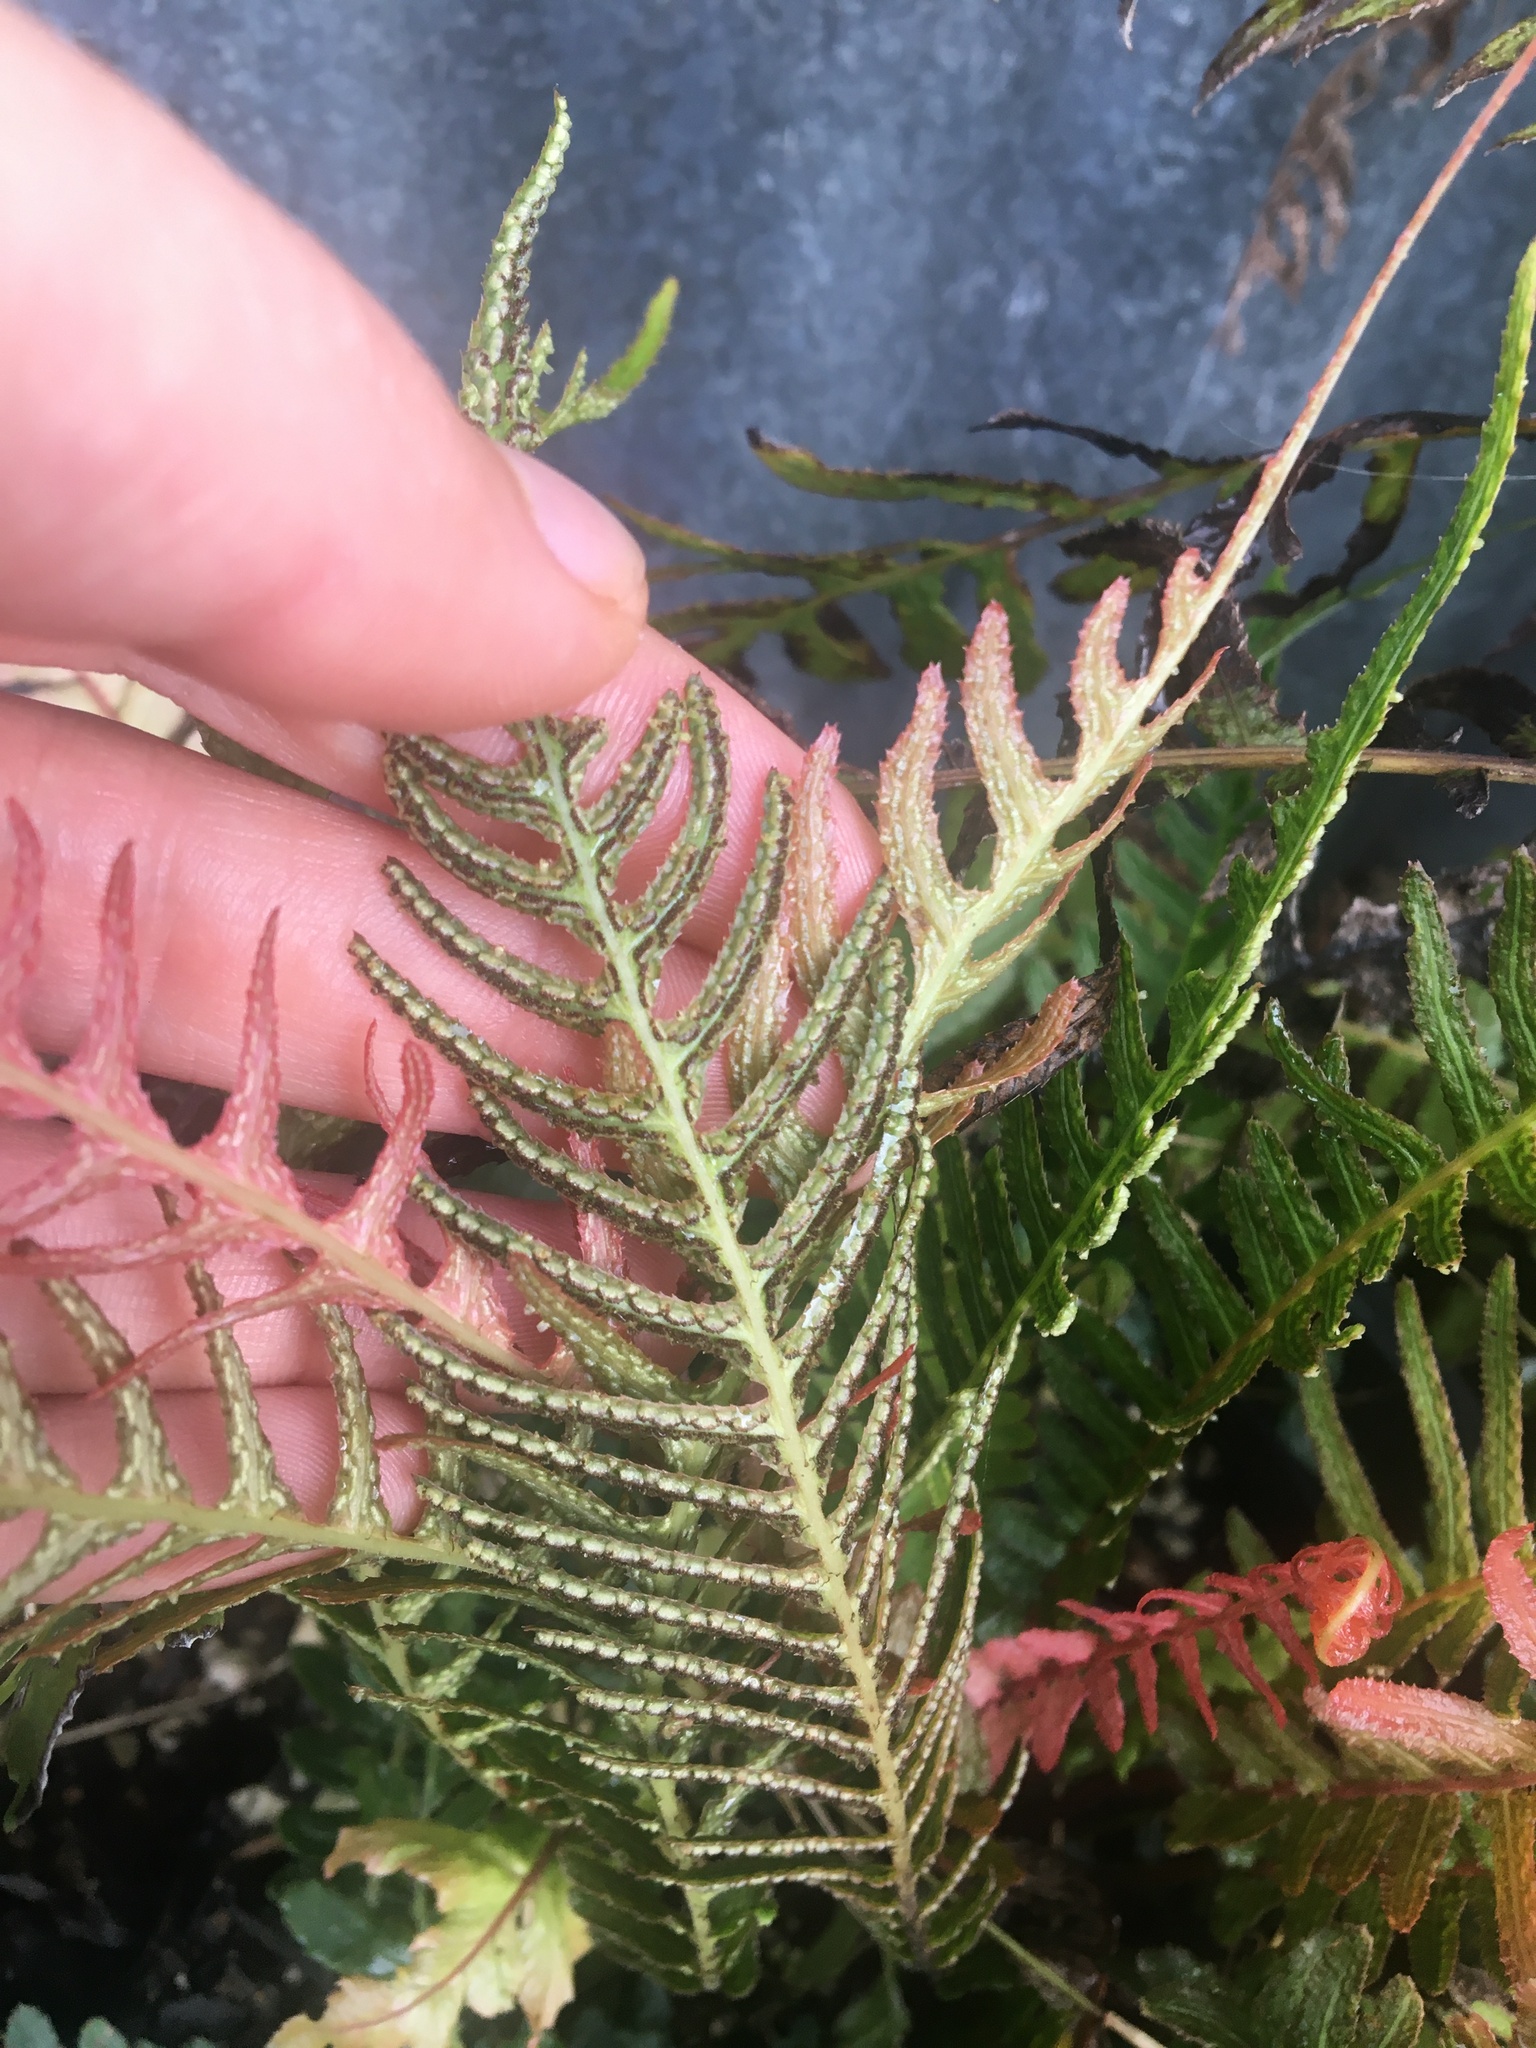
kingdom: Plantae
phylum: Tracheophyta
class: Polypodiopsida
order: Polypodiales
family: Blechnaceae
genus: Doodia
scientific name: Doodia australis
